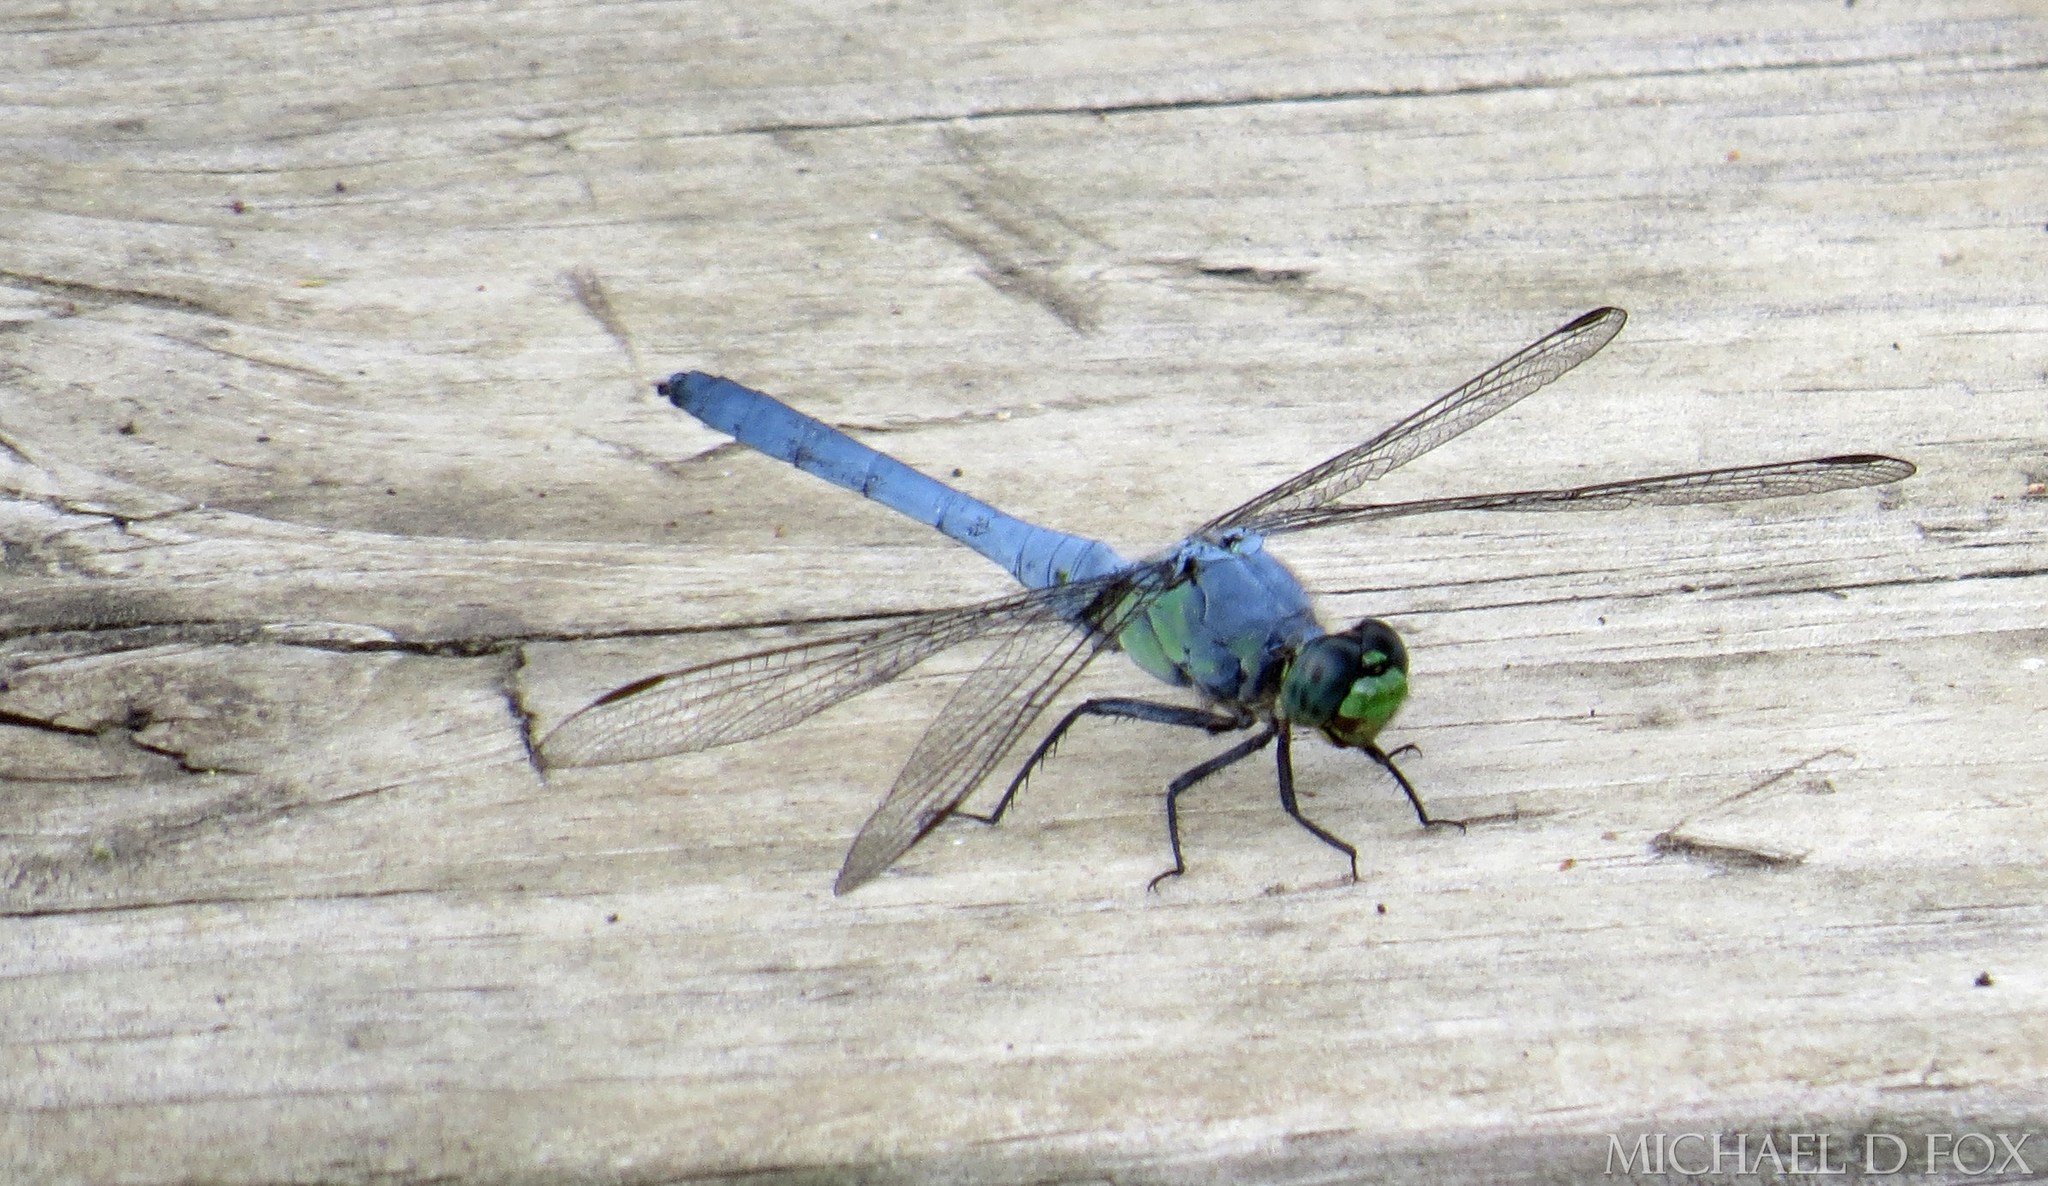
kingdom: Animalia
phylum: Arthropoda
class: Insecta
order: Odonata
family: Libellulidae
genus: Erythemis
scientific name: Erythemis simplicicollis
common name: Eastern pondhawk
